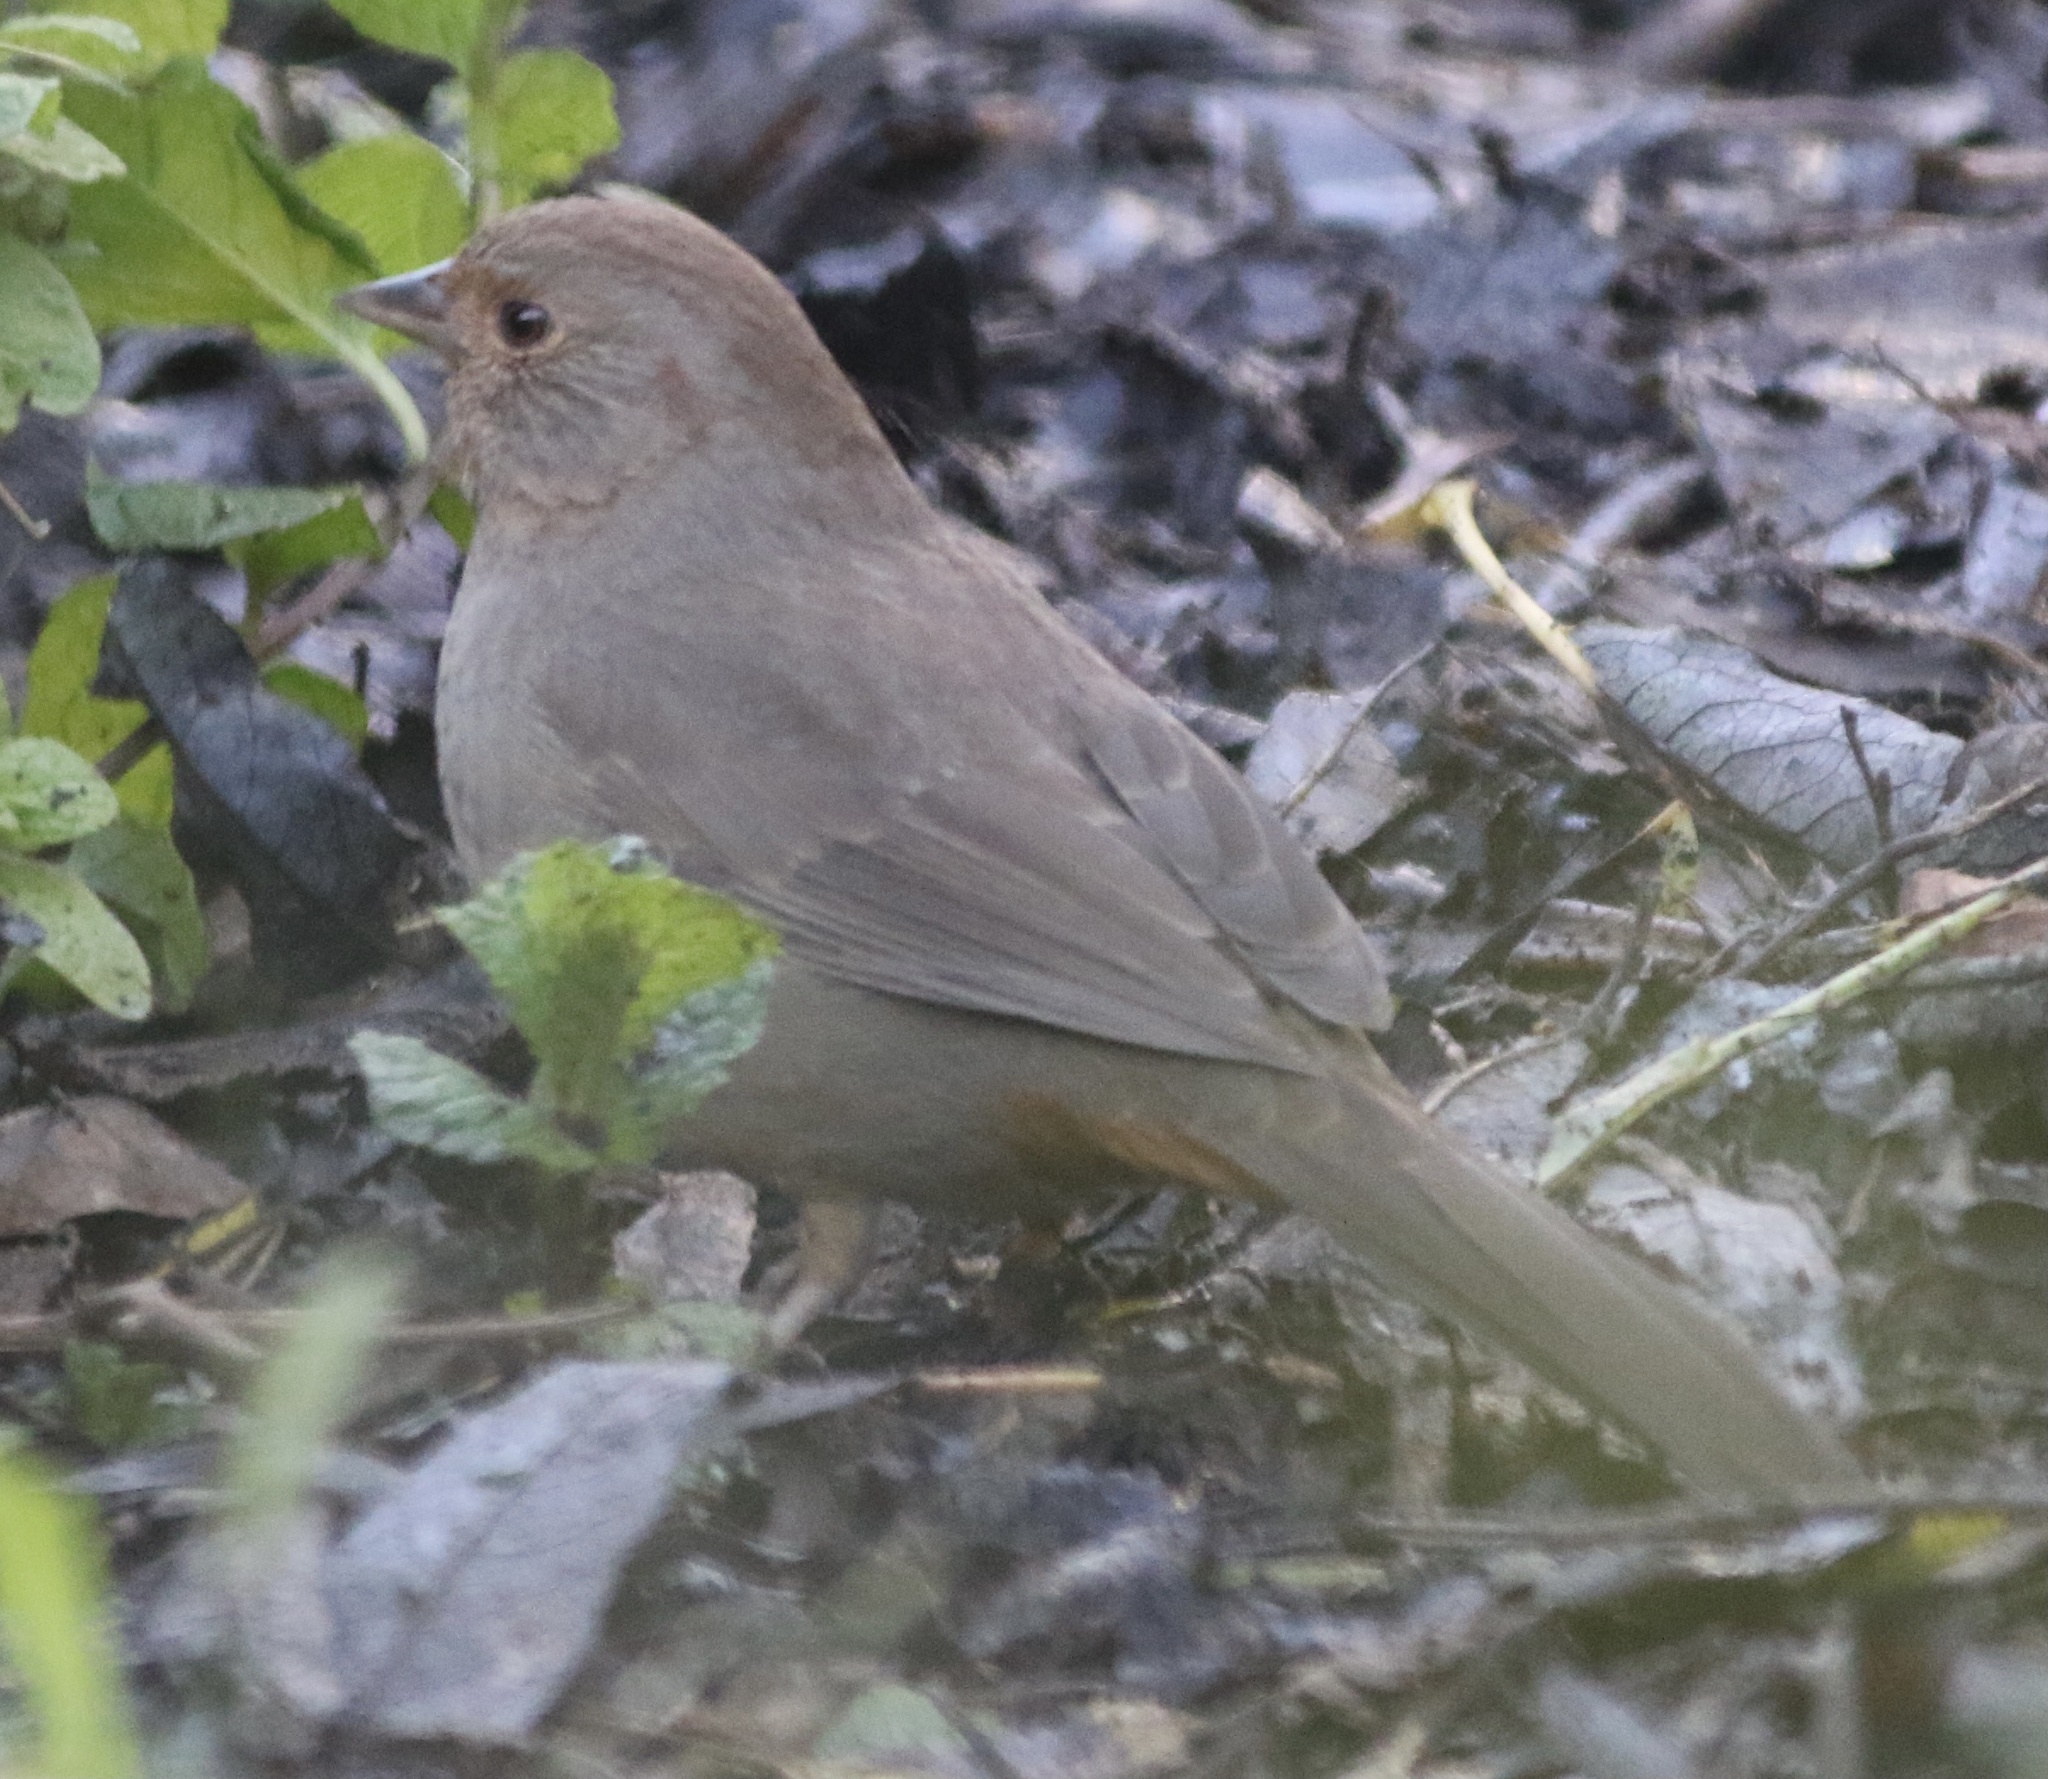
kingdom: Animalia
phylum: Chordata
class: Aves
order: Passeriformes
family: Passerellidae
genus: Melozone
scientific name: Melozone crissalis
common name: California towhee
